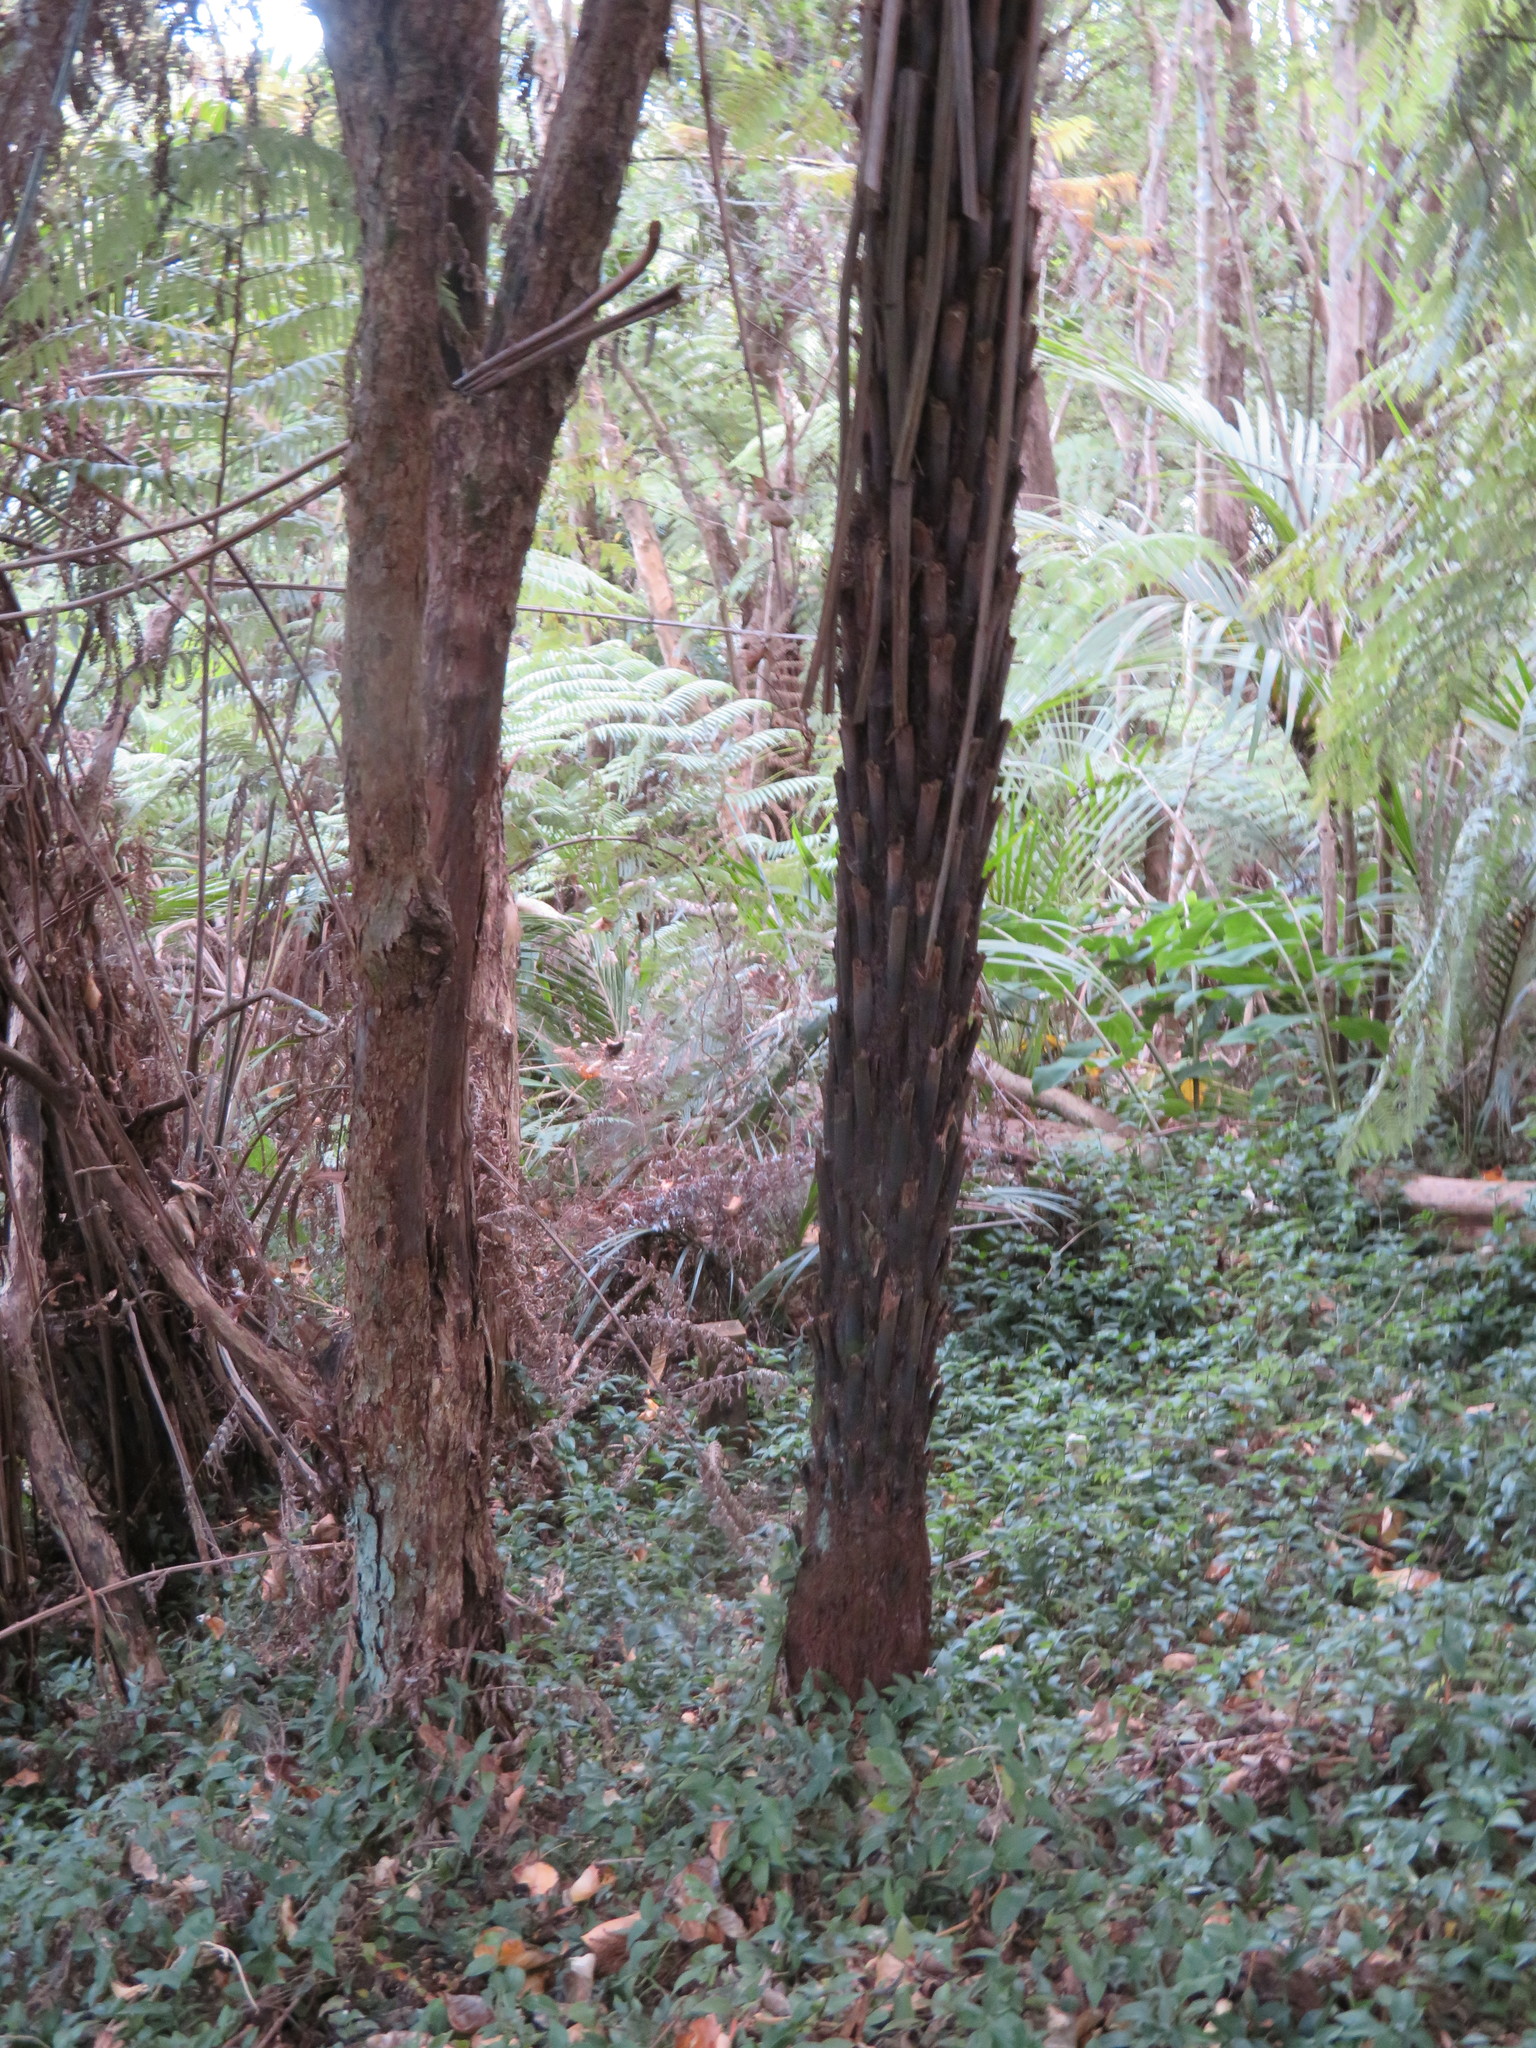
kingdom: Plantae
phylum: Tracheophyta
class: Liliopsida
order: Arecales
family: Arecaceae
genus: Rhopalostylis
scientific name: Rhopalostylis sapida
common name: Feather-duster palm
